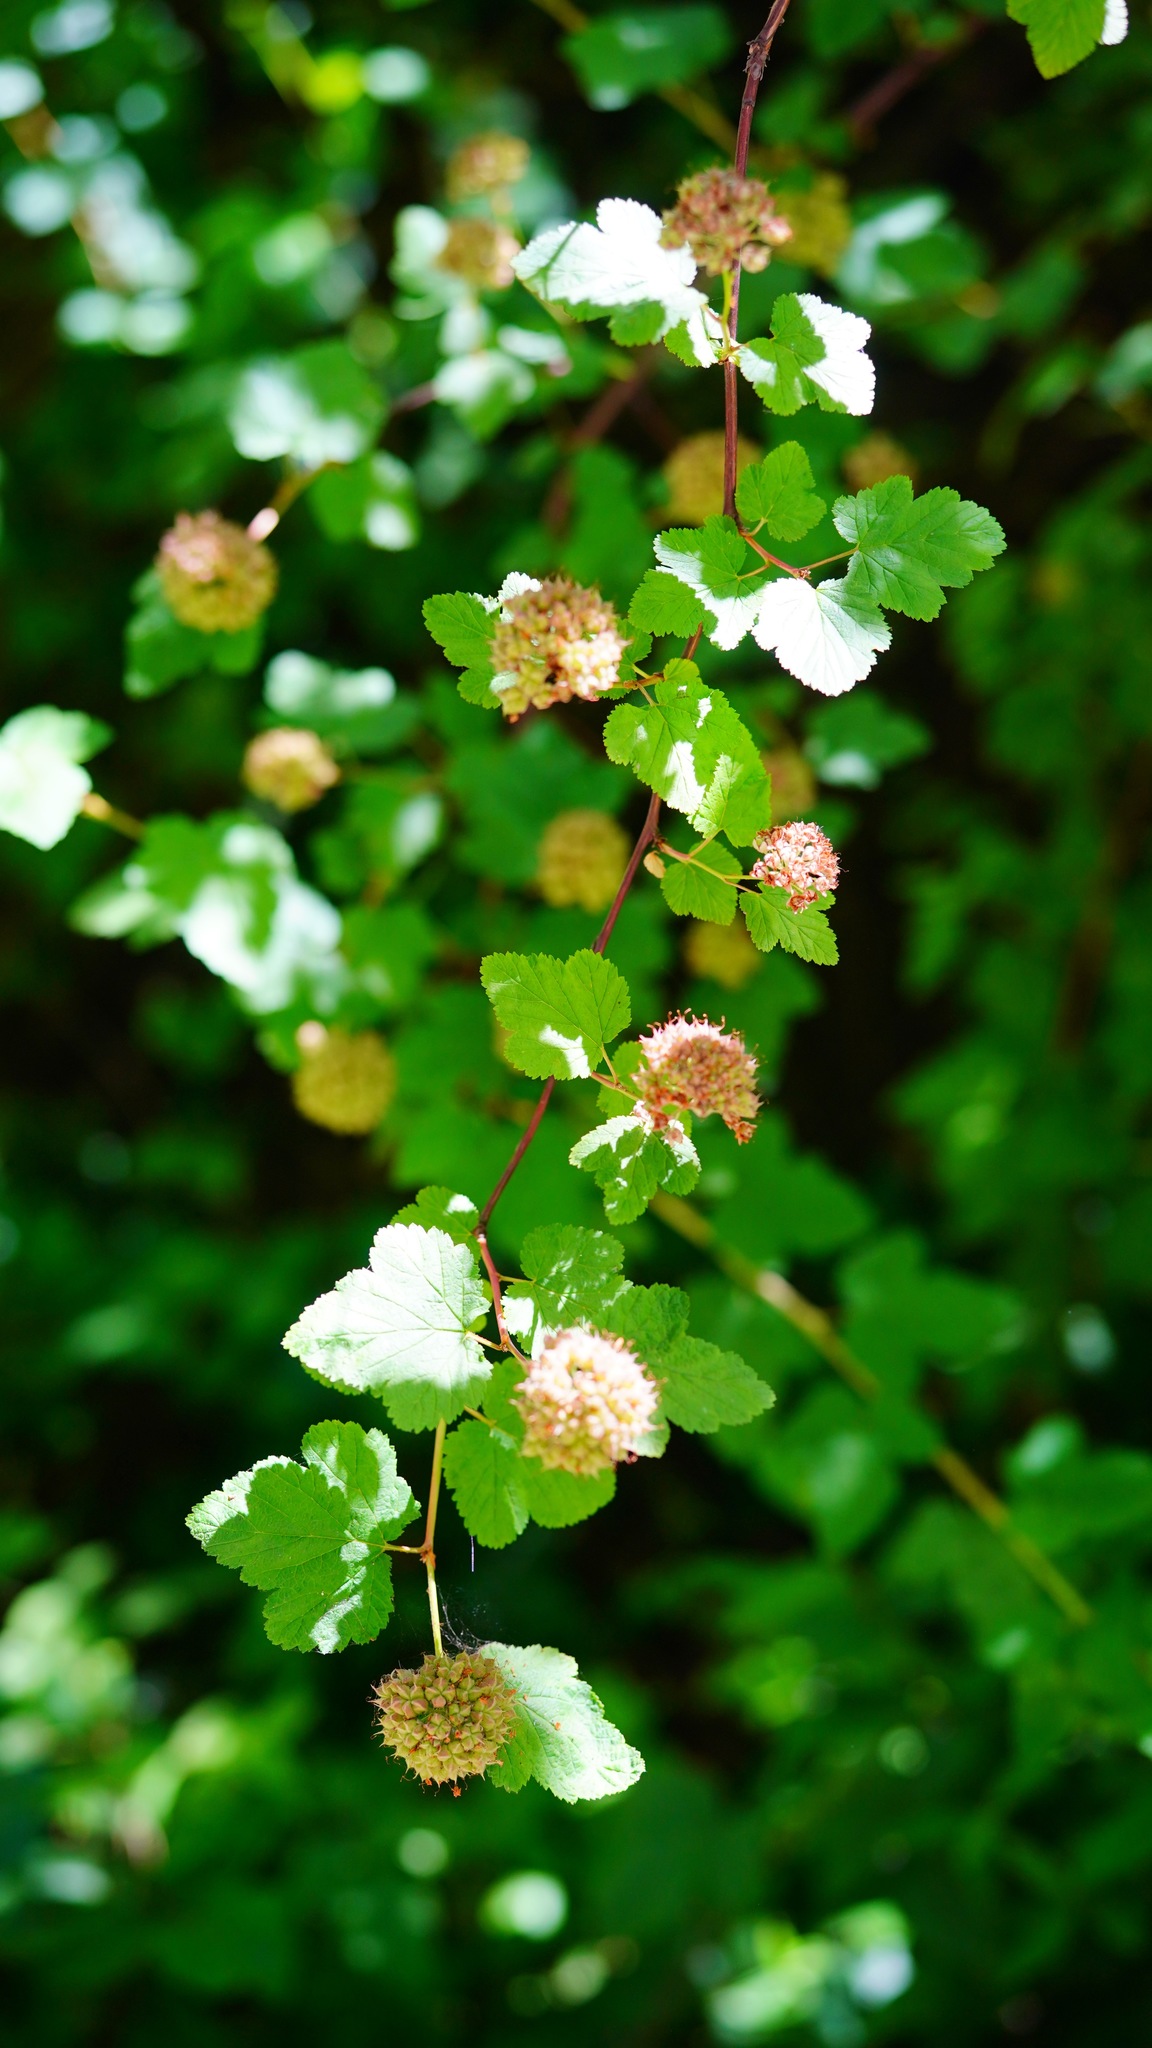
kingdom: Plantae
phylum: Tracheophyta
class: Magnoliopsida
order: Rosales
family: Rosaceae
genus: Physocarpus
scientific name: Physocarpus capitatus
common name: Pacific ninebark
